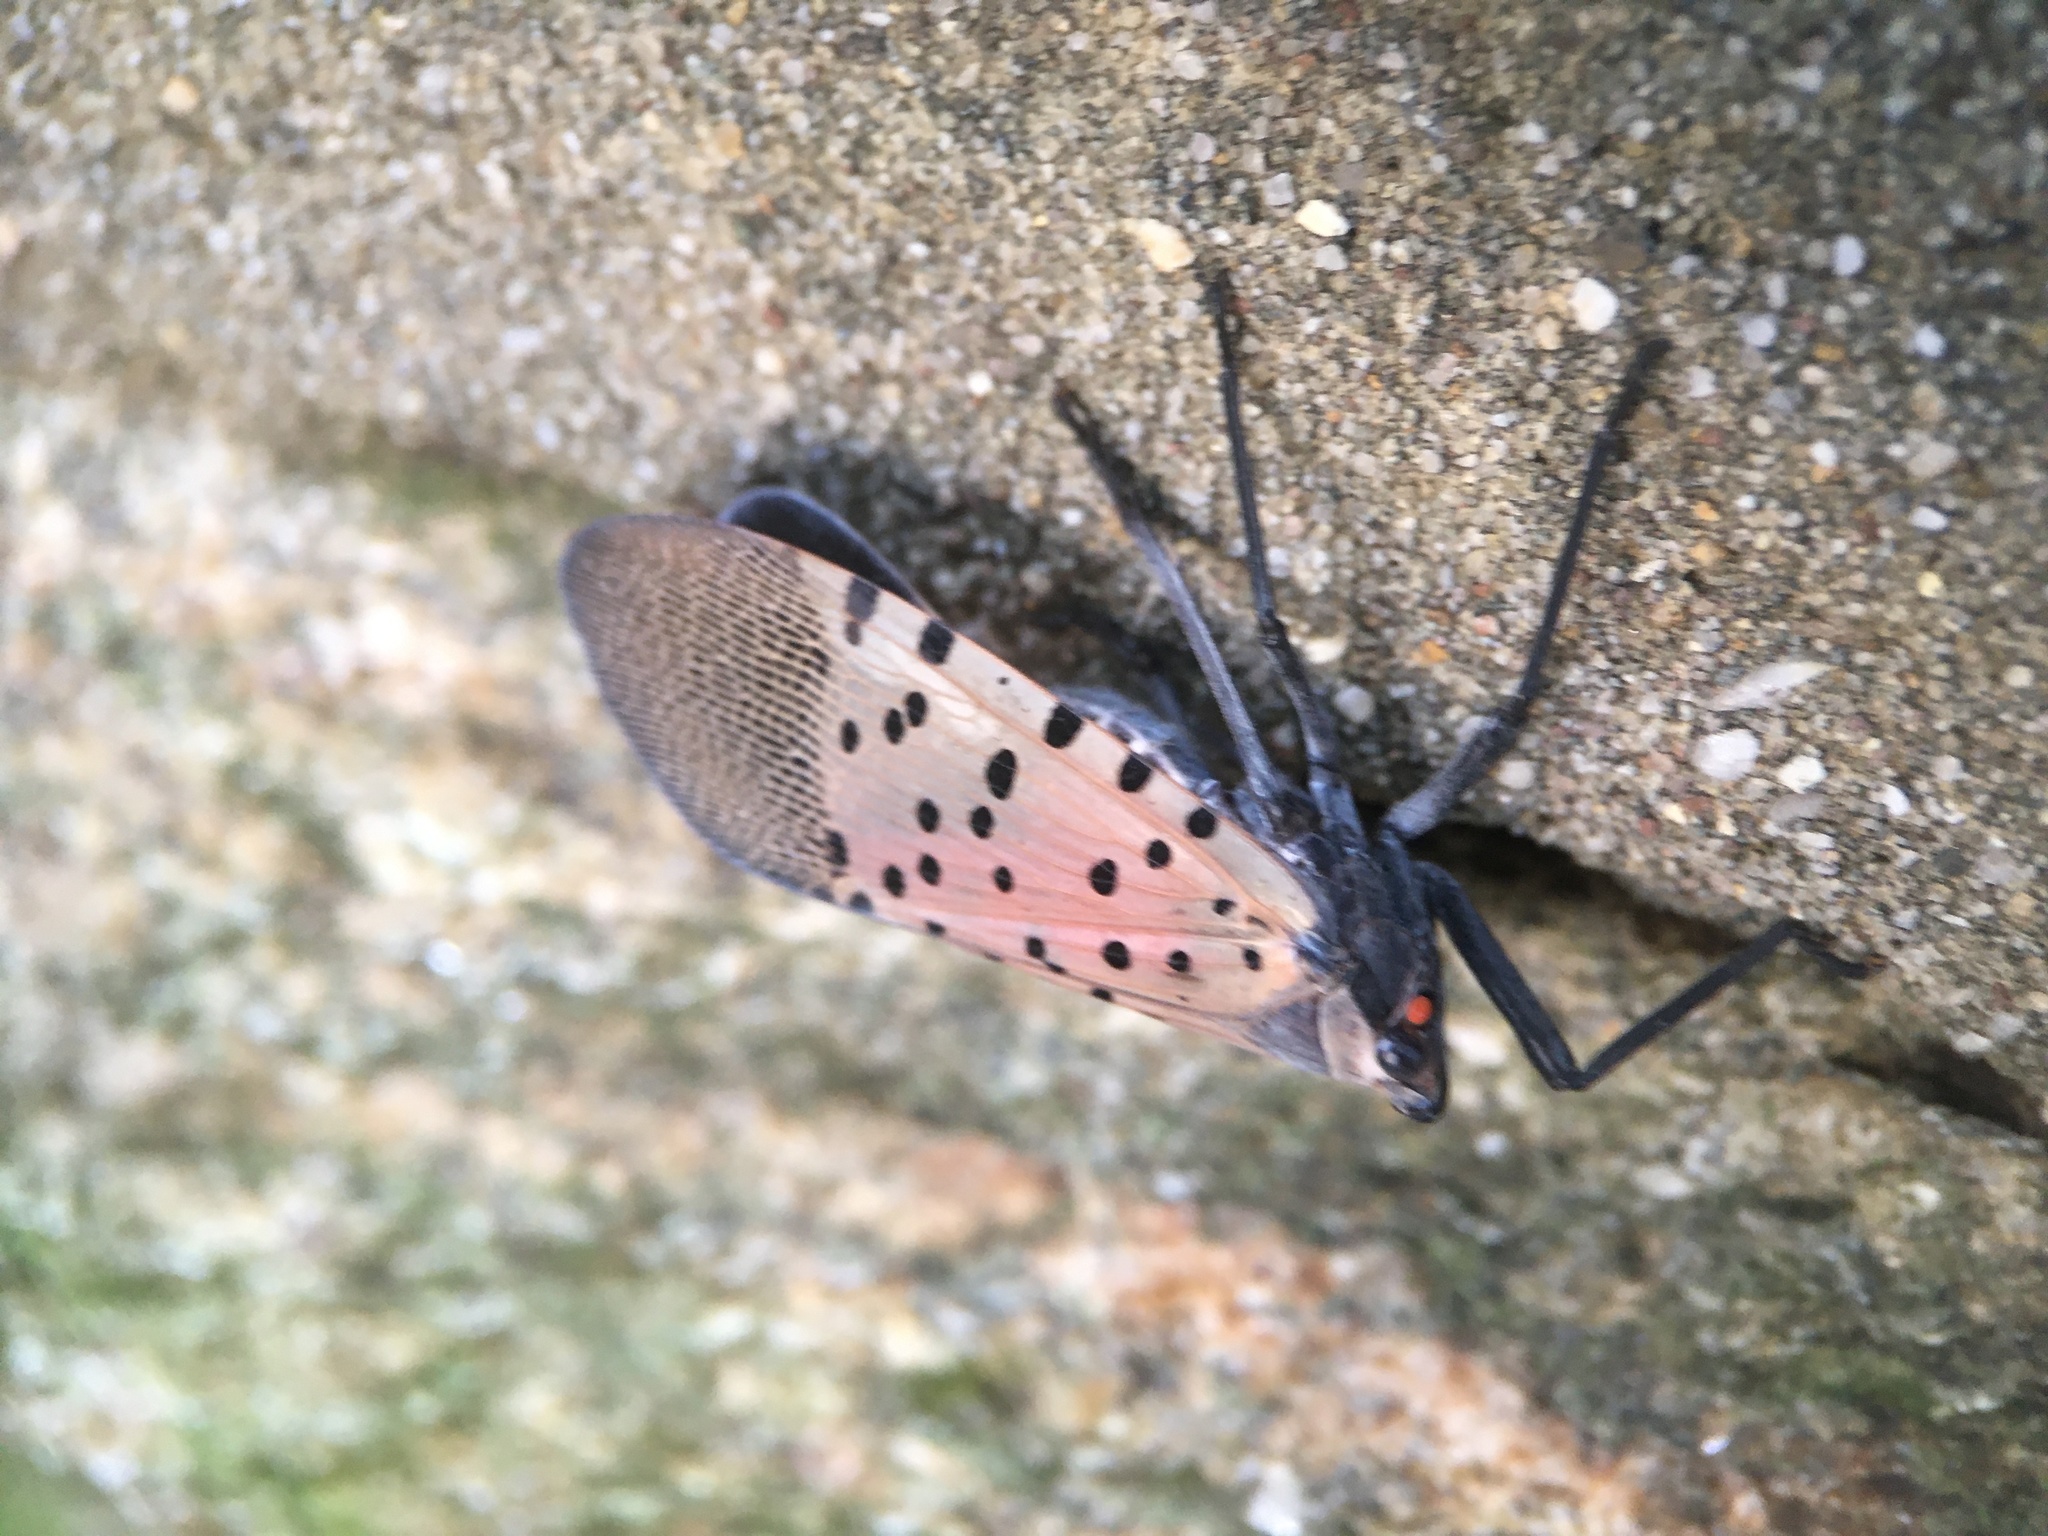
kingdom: Animalia
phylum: Arthropoda
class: Insecta
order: Hemiptera
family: Fulgoridae
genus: Lycorma
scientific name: Lycorma delicatula
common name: Spotted lanternfly
